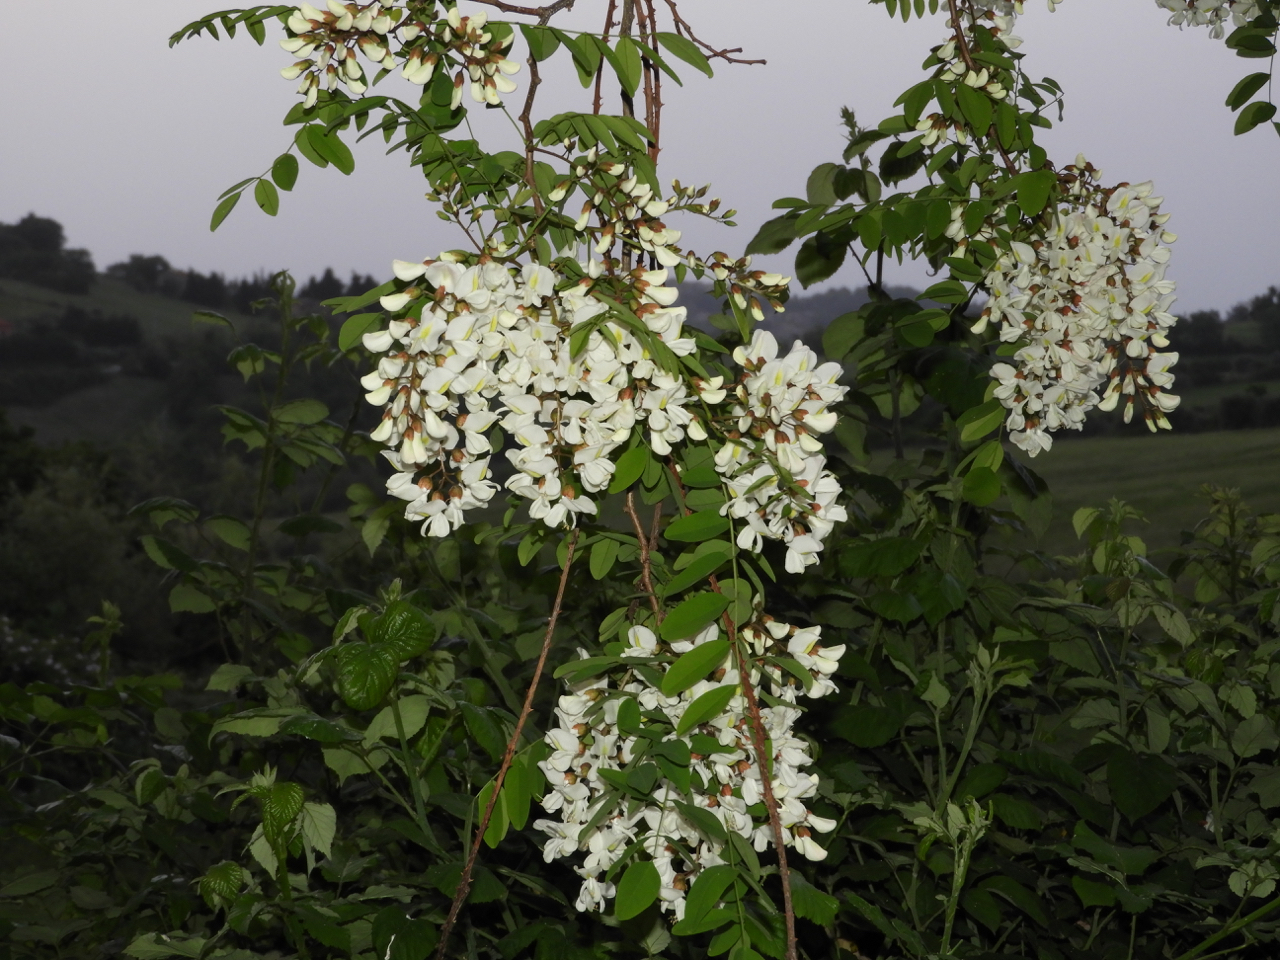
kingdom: Plantae
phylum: Tracheophyta
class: Magnoliopsida
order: Fabales
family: Fabaceae
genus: Robinia
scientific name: Robinia pseudoacacia
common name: Black locust
